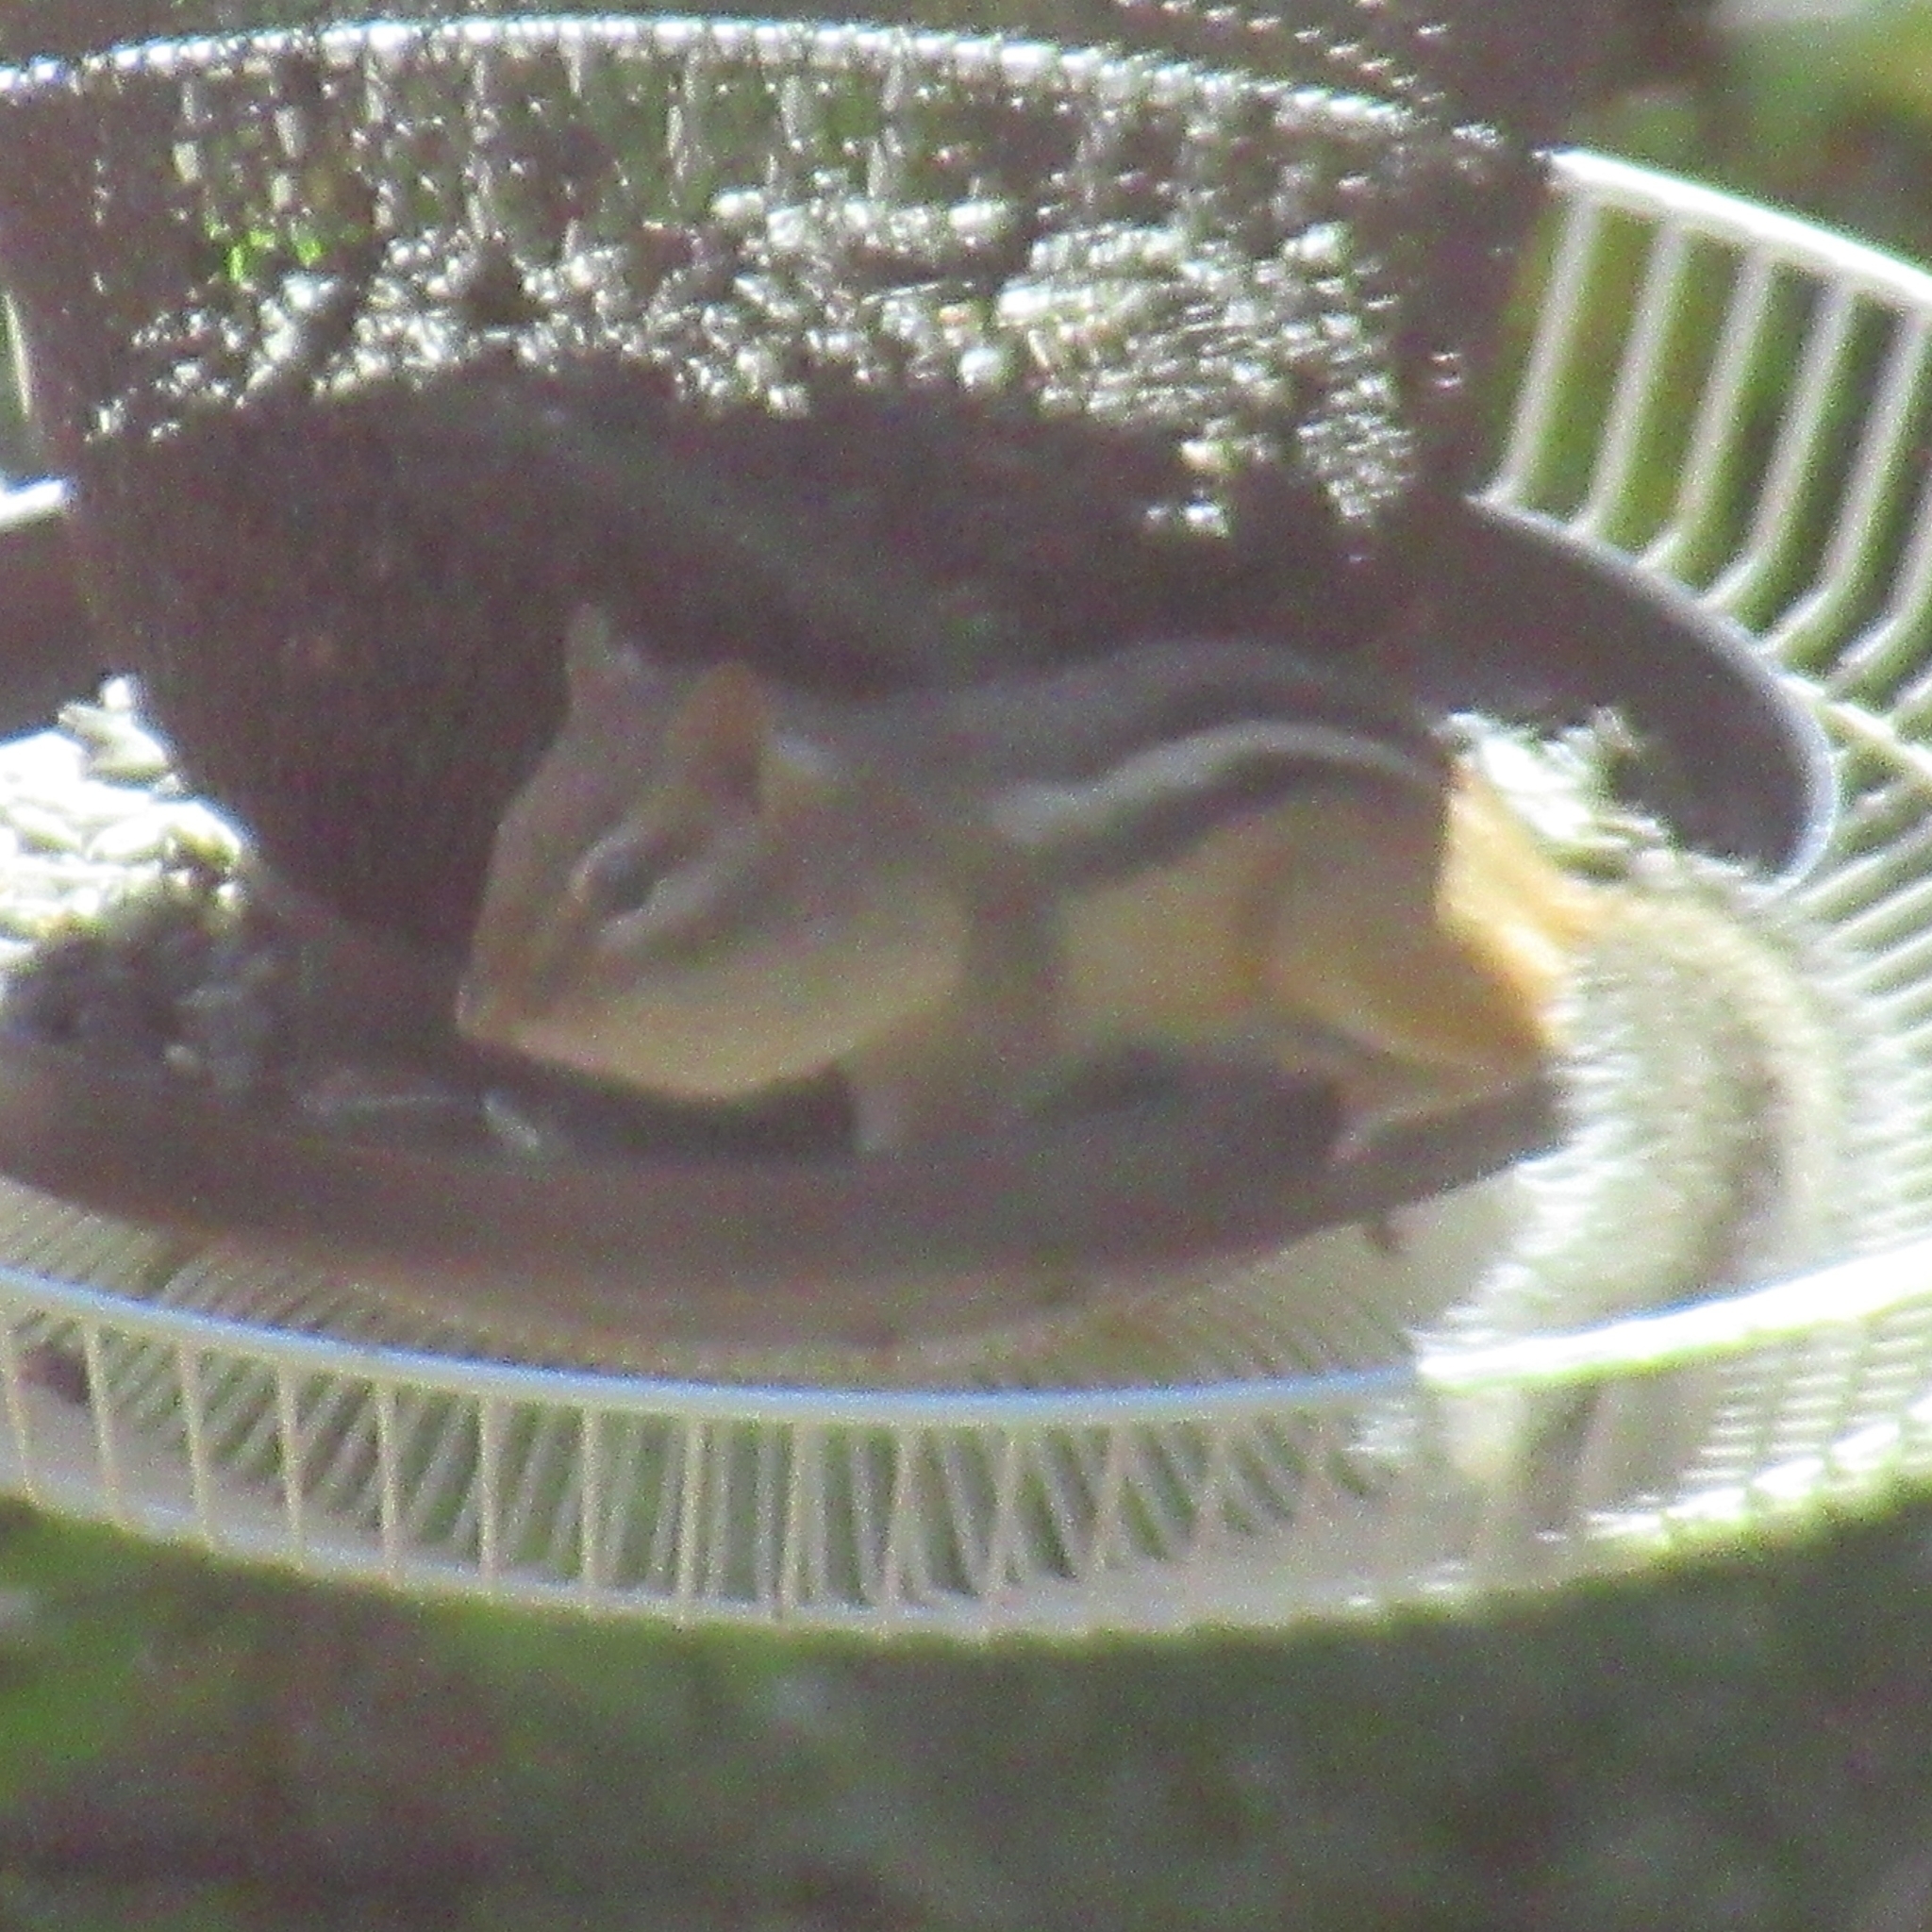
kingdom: Animalia
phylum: Chordata
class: Mammalia
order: Rodentia
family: Sciuridae
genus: Tamias
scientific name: Tamias striatus
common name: Eastern chipmunk
